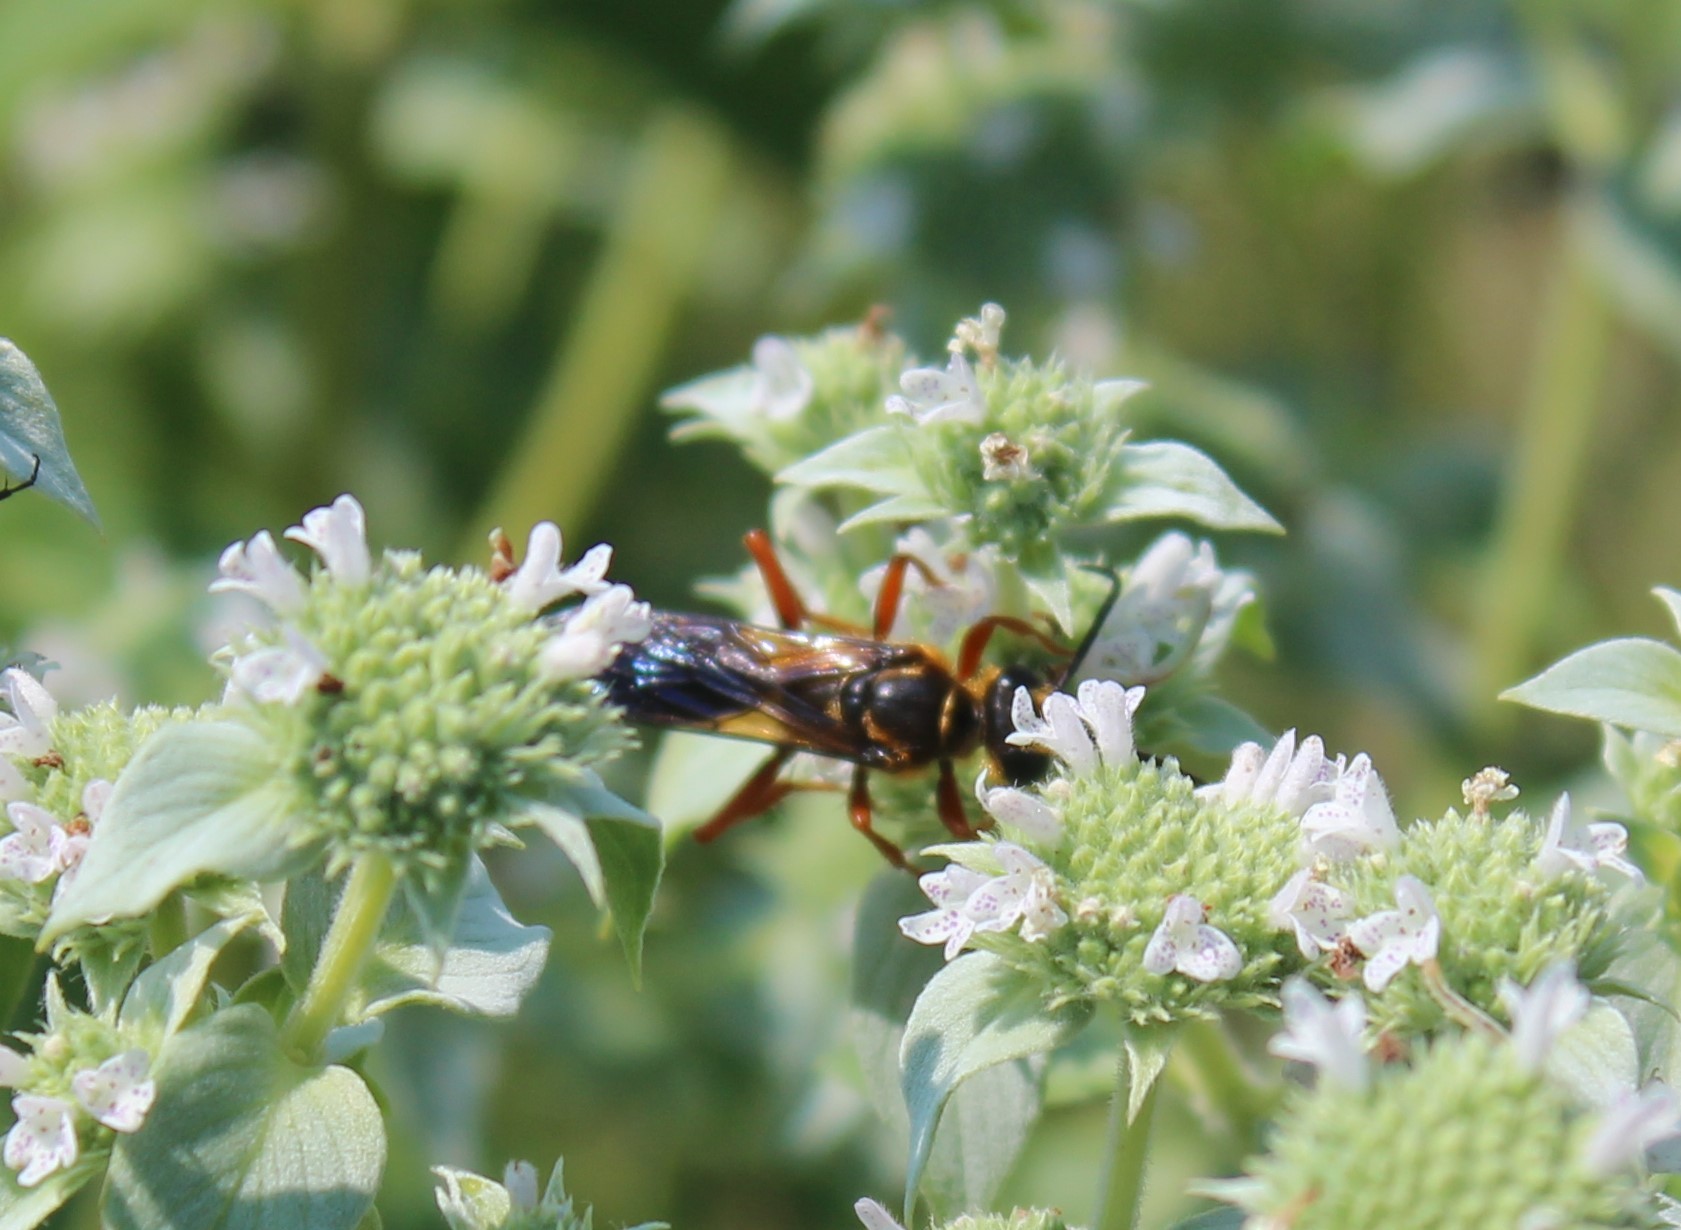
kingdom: Animalia
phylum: Arthropoda
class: Insecta
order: Hymenoptera
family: Sphecidae
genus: Sphex
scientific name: Sphex ichneumoneus
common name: Great golden digger wasp
